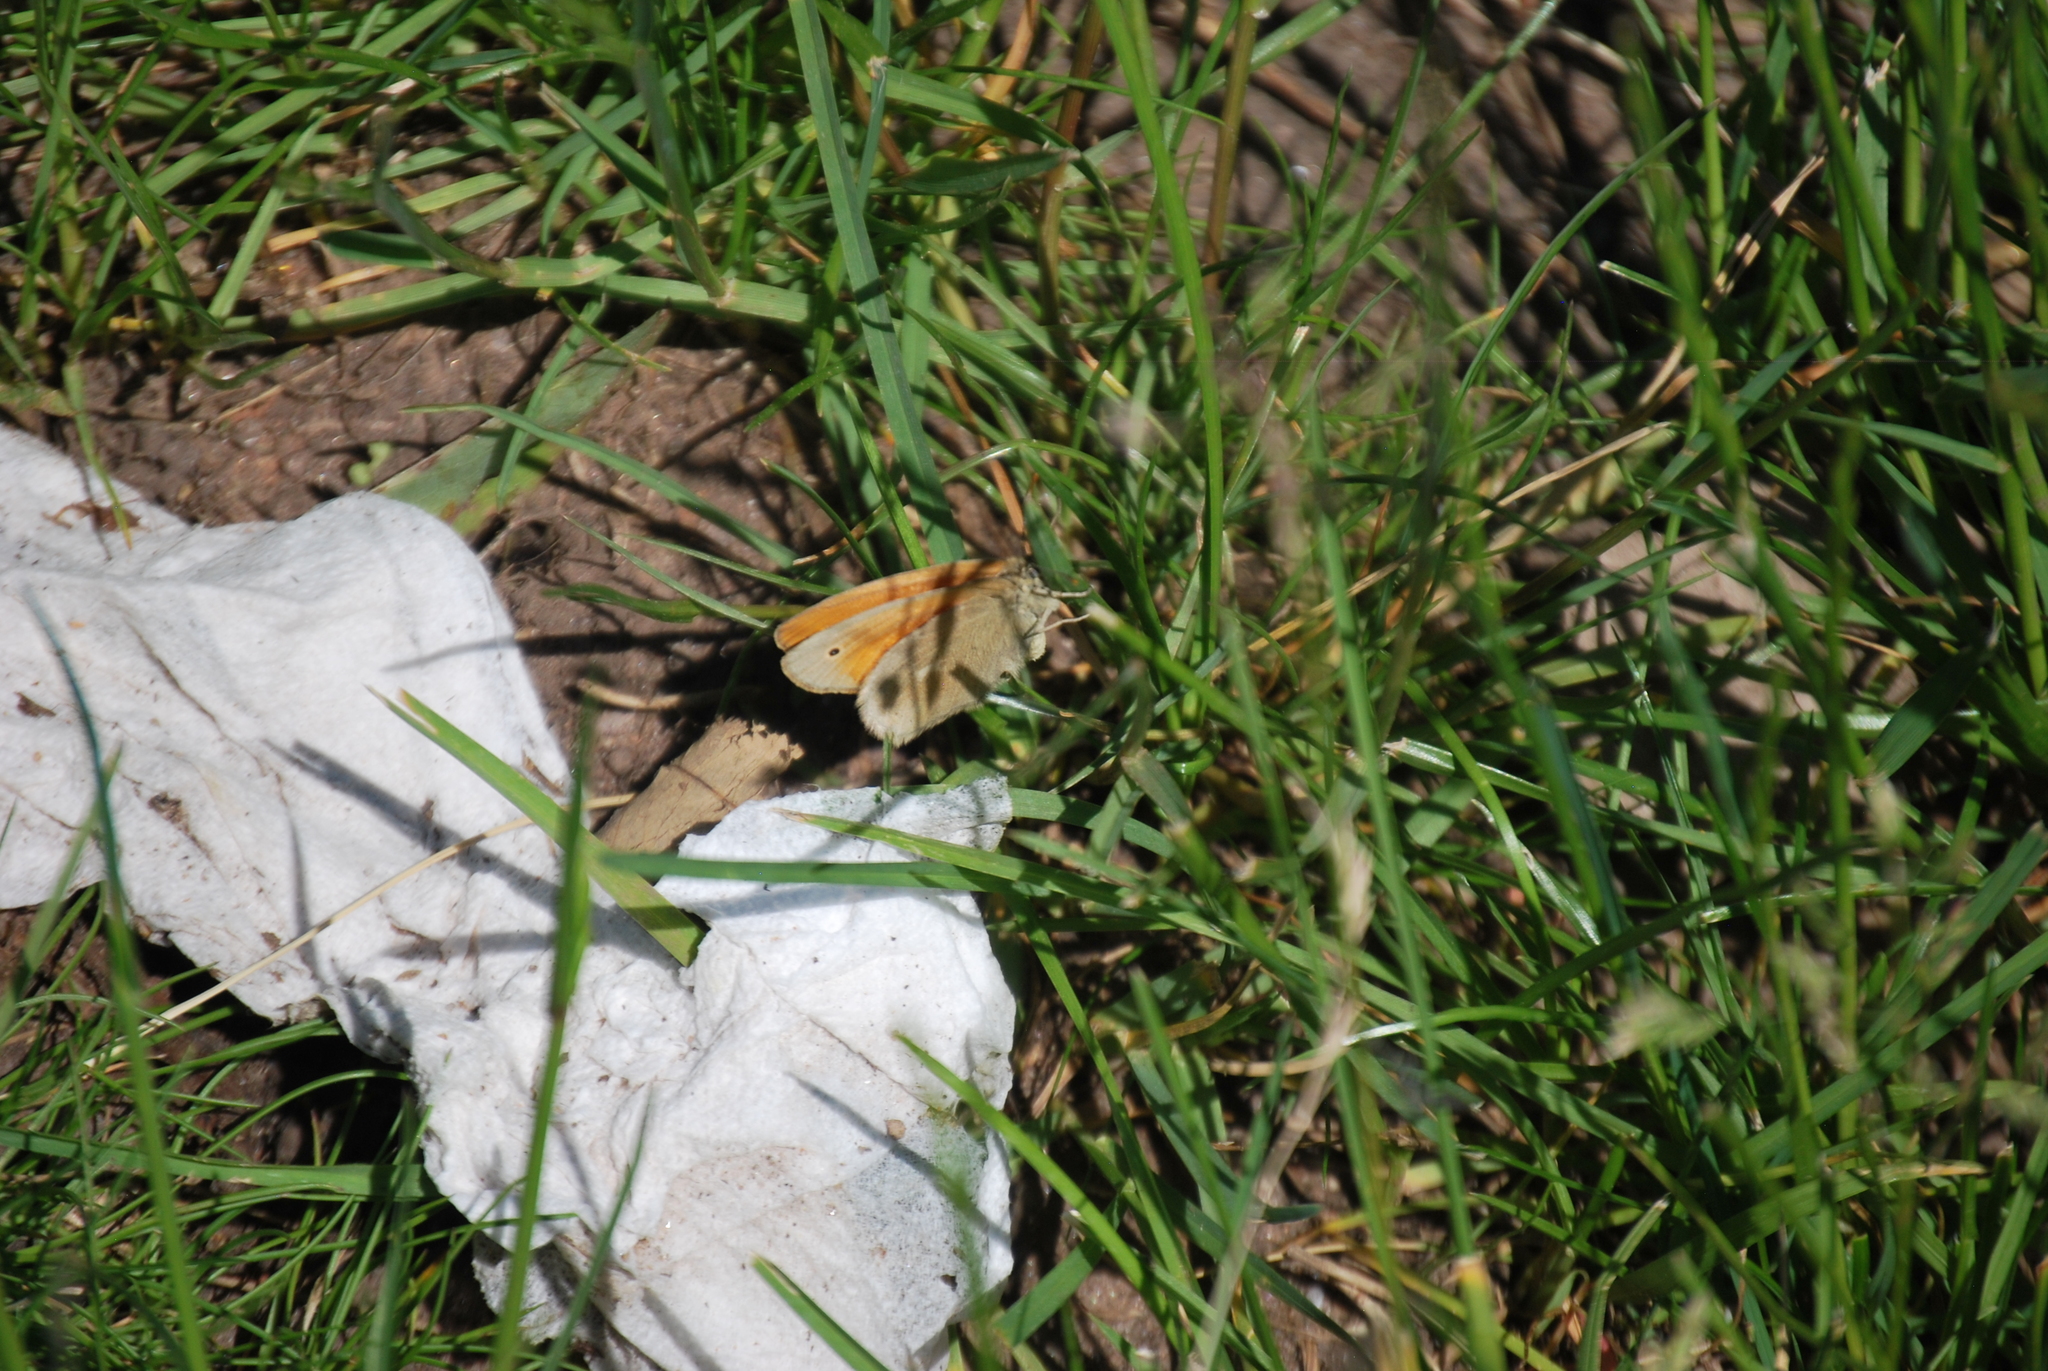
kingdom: Animalia
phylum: Arthropoda
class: Insecta
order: Lepidoptera
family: Nymphalidae
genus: Coenonympha
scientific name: Coenonympha california
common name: Common ringlet
